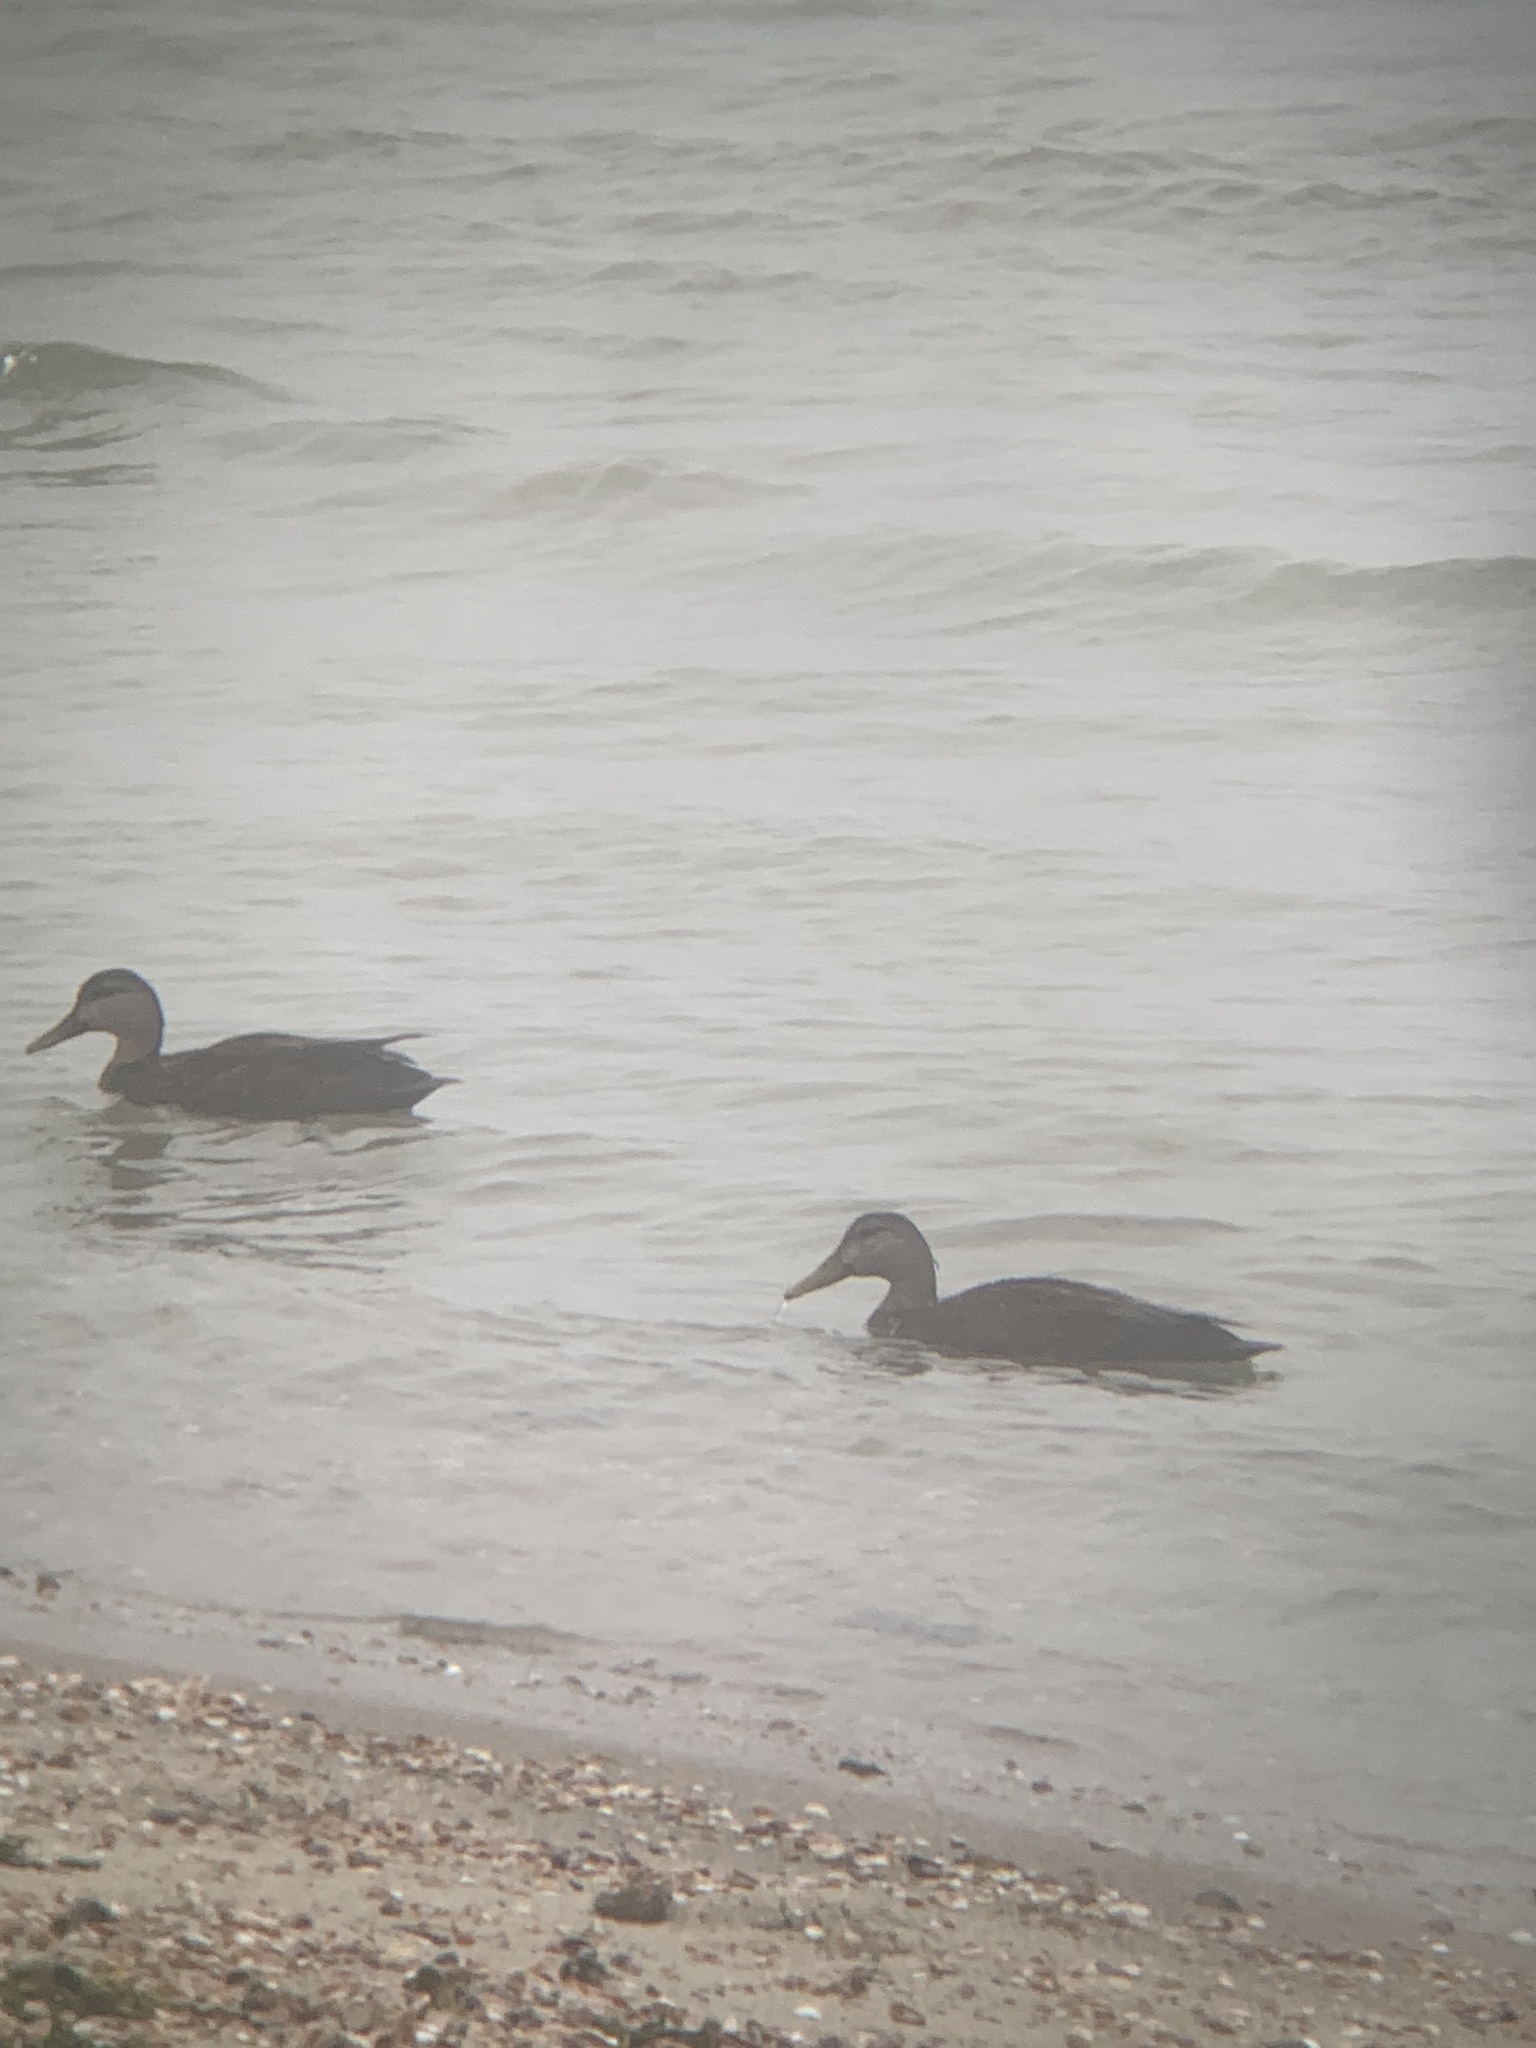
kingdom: Animalia
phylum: Chordata
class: Aves
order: Anseriformes
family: Anatidae
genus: Anas
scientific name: Anas rubripes
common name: American black duck
